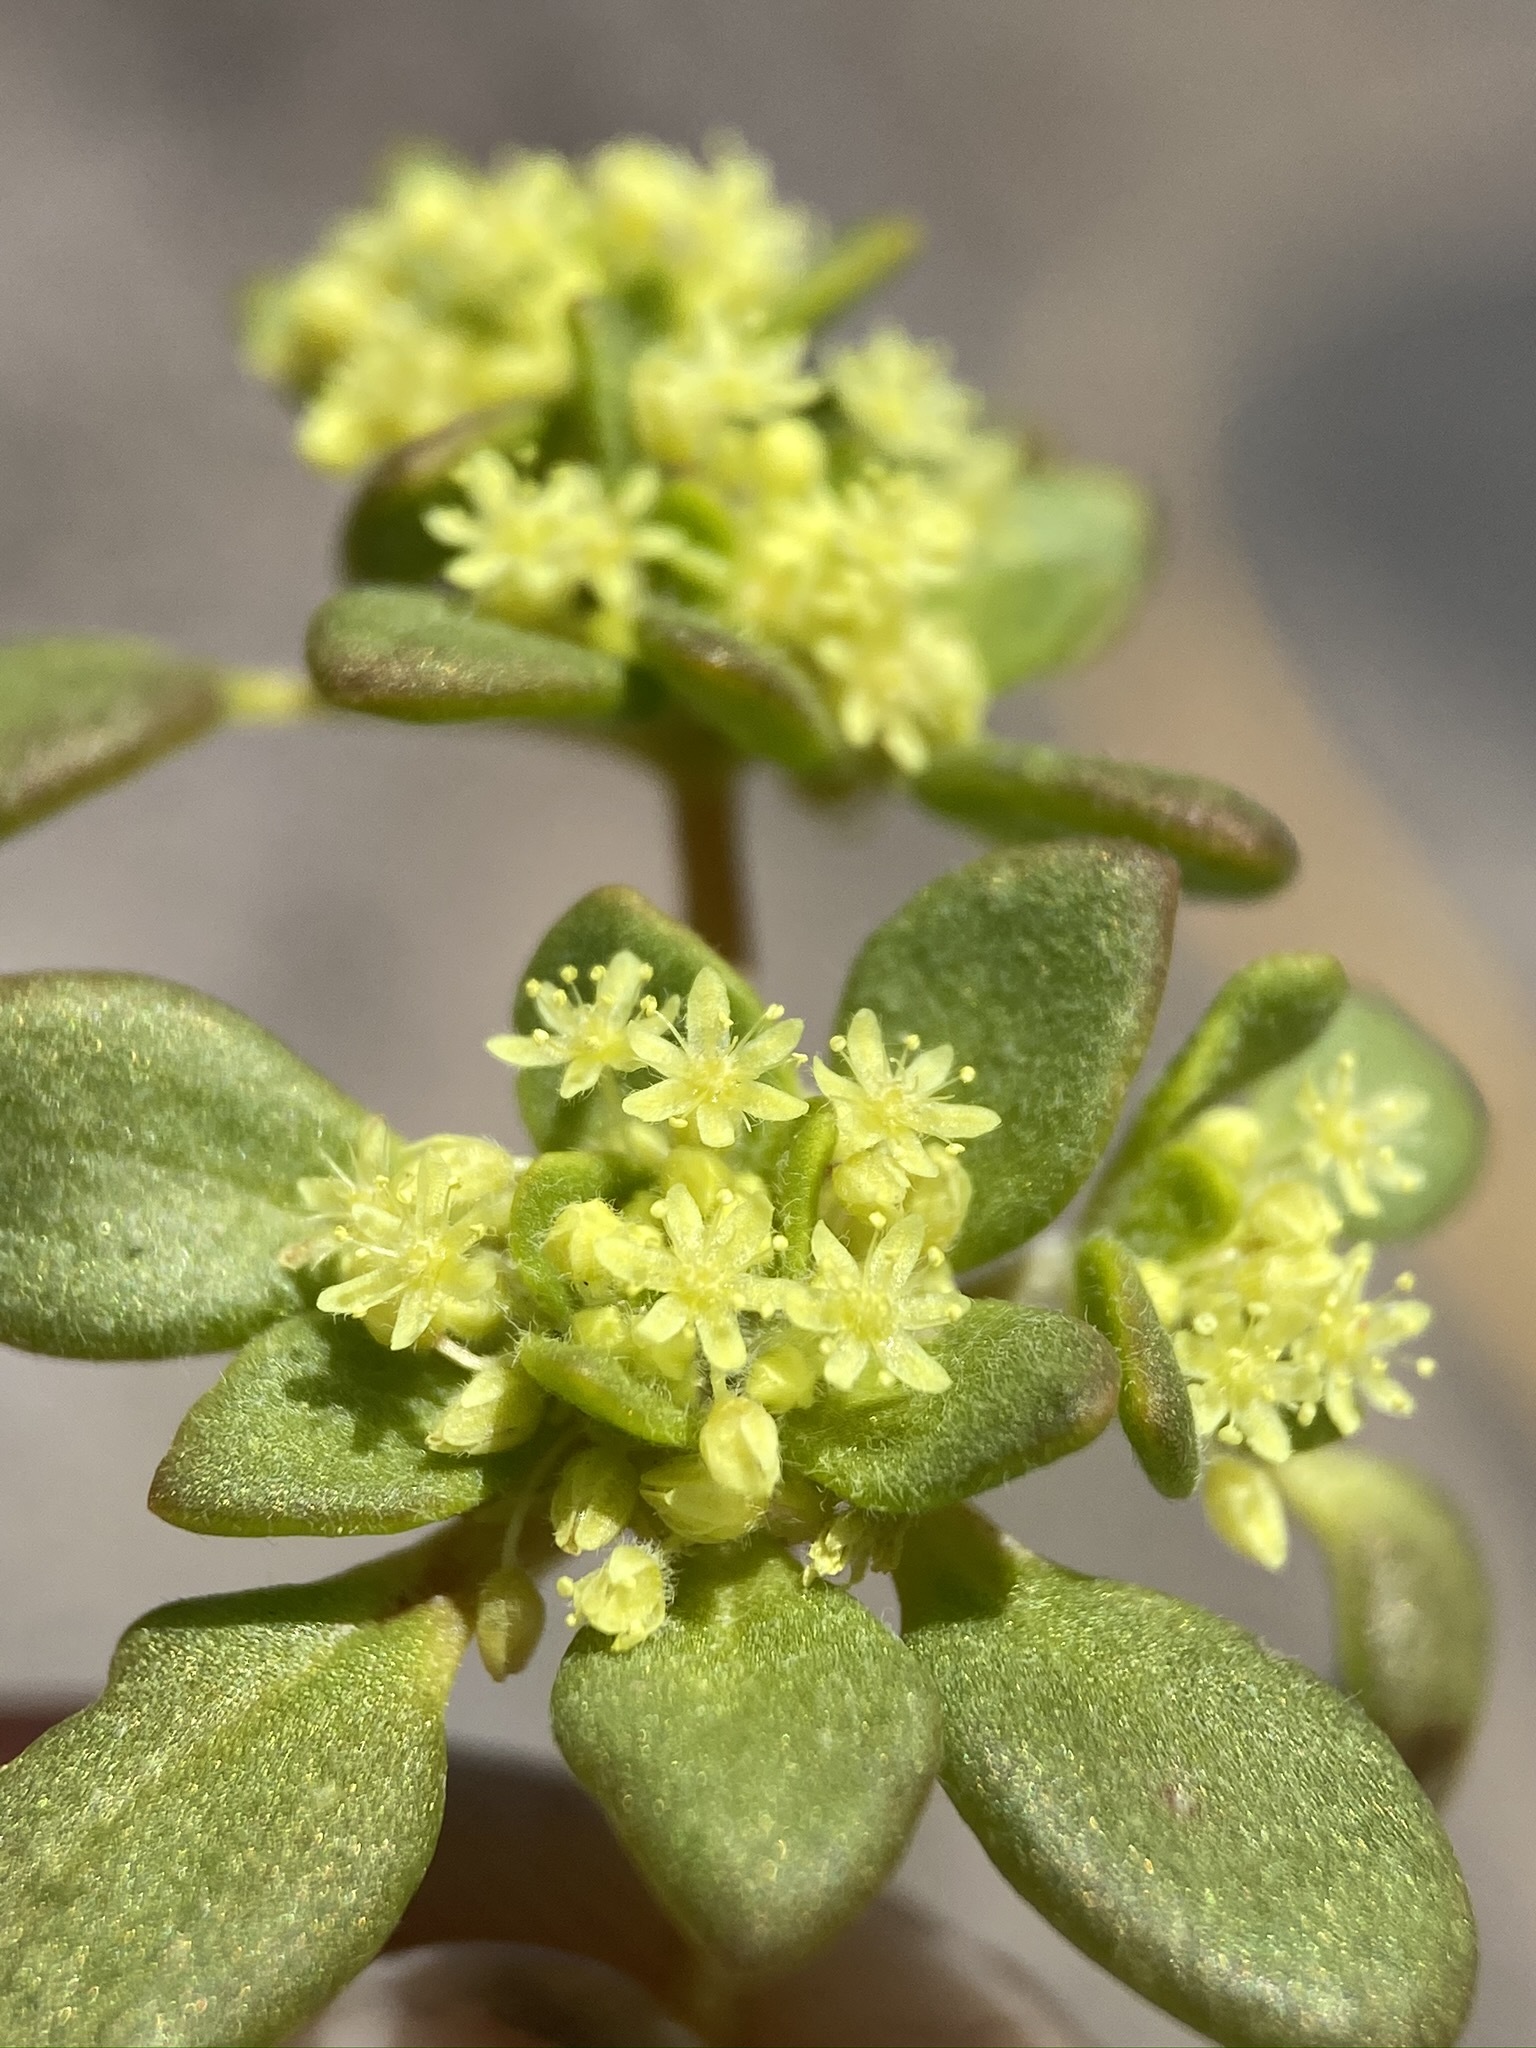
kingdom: Plantae
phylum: Tracheophyta
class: Magnoliopsida
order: Caryophyllales
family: Polygonaceae
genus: Gilmania
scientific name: Gilmania luteola
